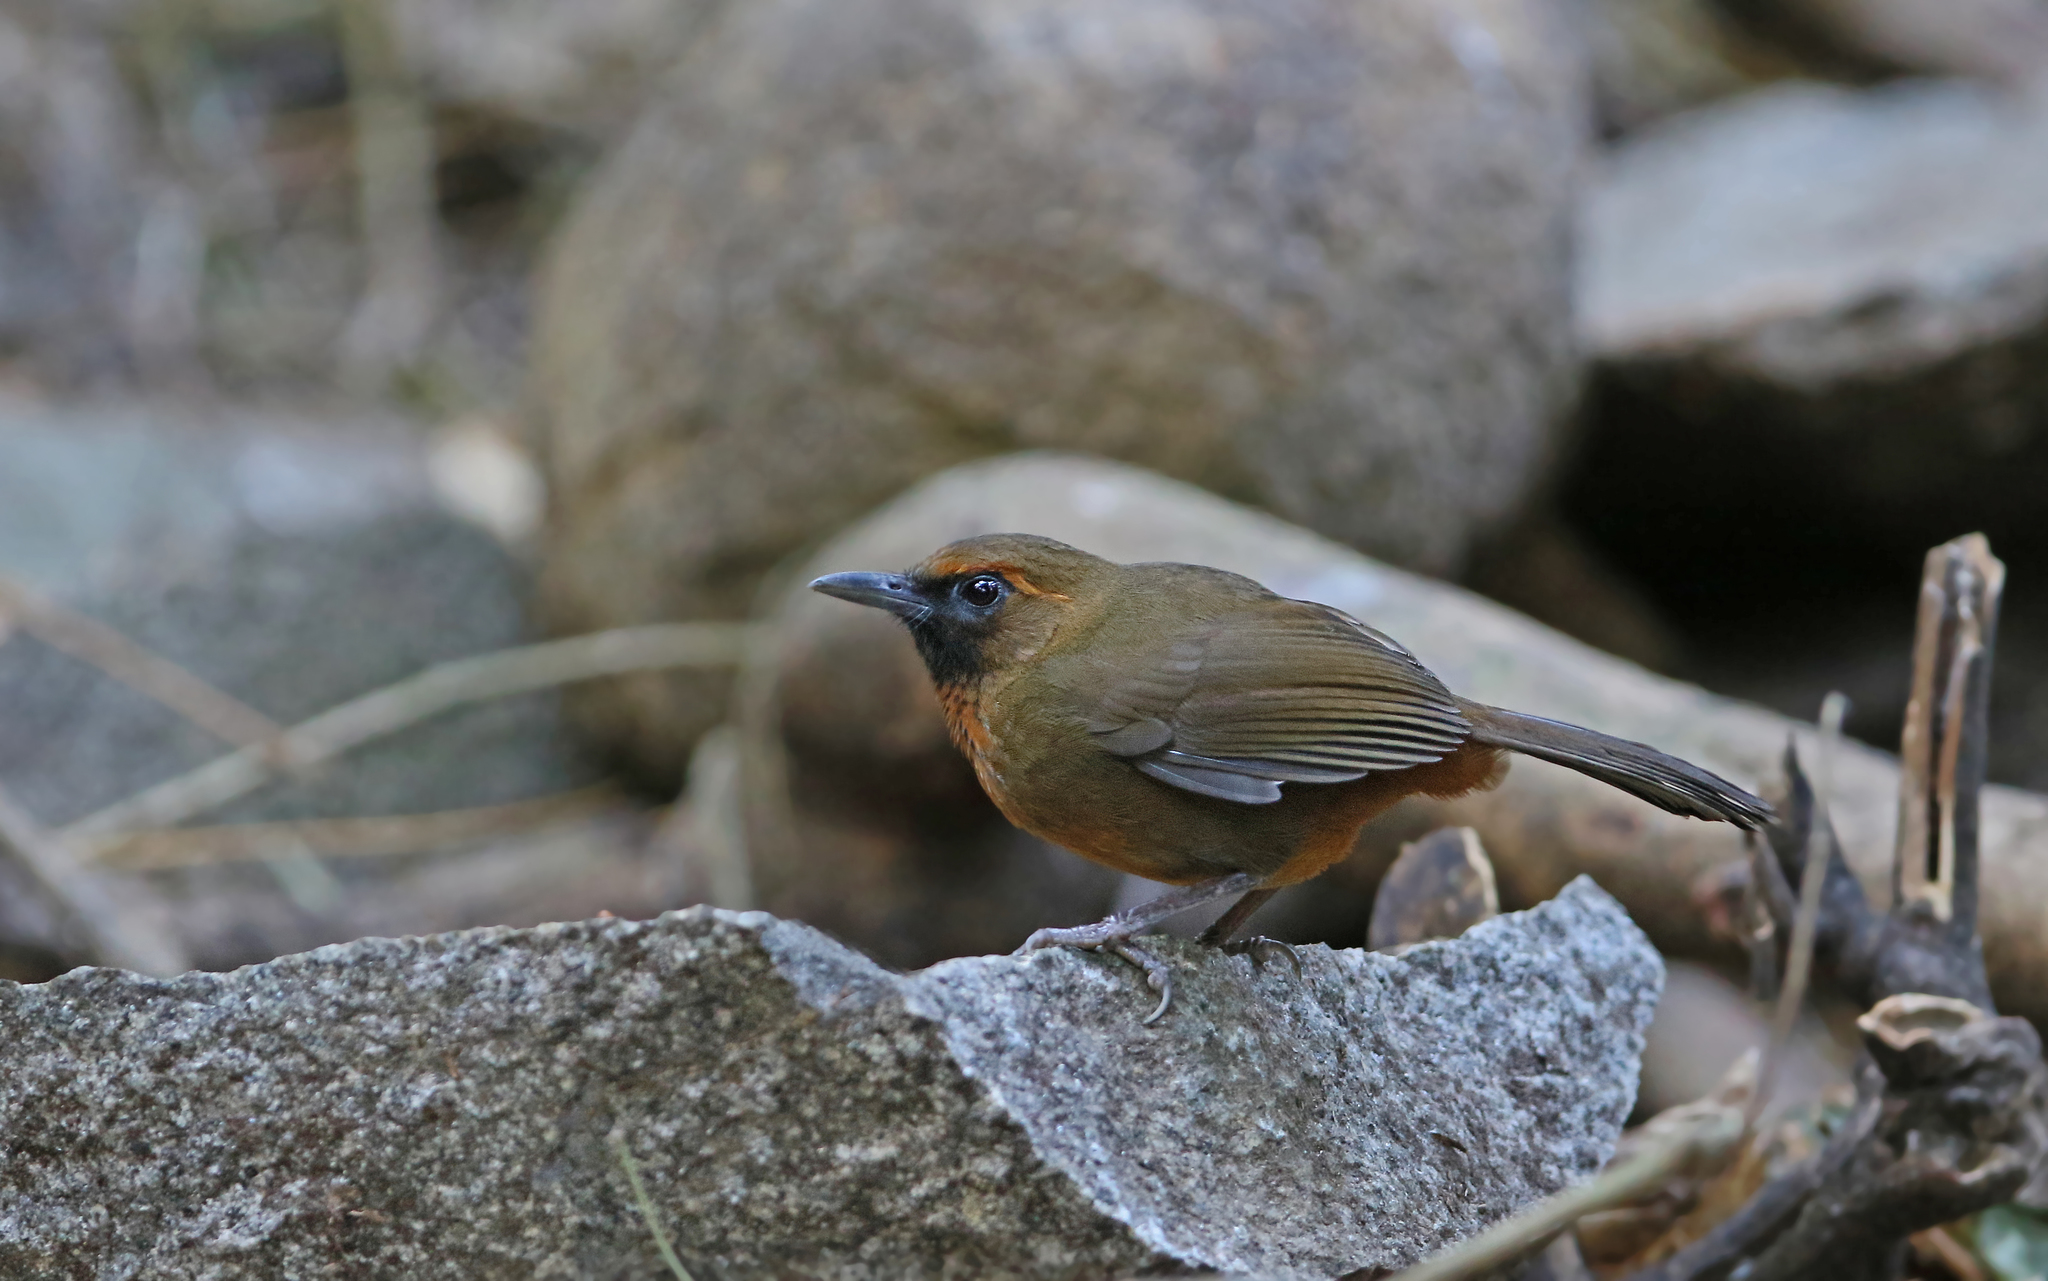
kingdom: Animalia
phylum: Chordata
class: Aves
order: Passeriformes
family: Leiothrichidae
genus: Garrulax
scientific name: Garrulax annamensis
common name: Orange-breasted laughingthrush
